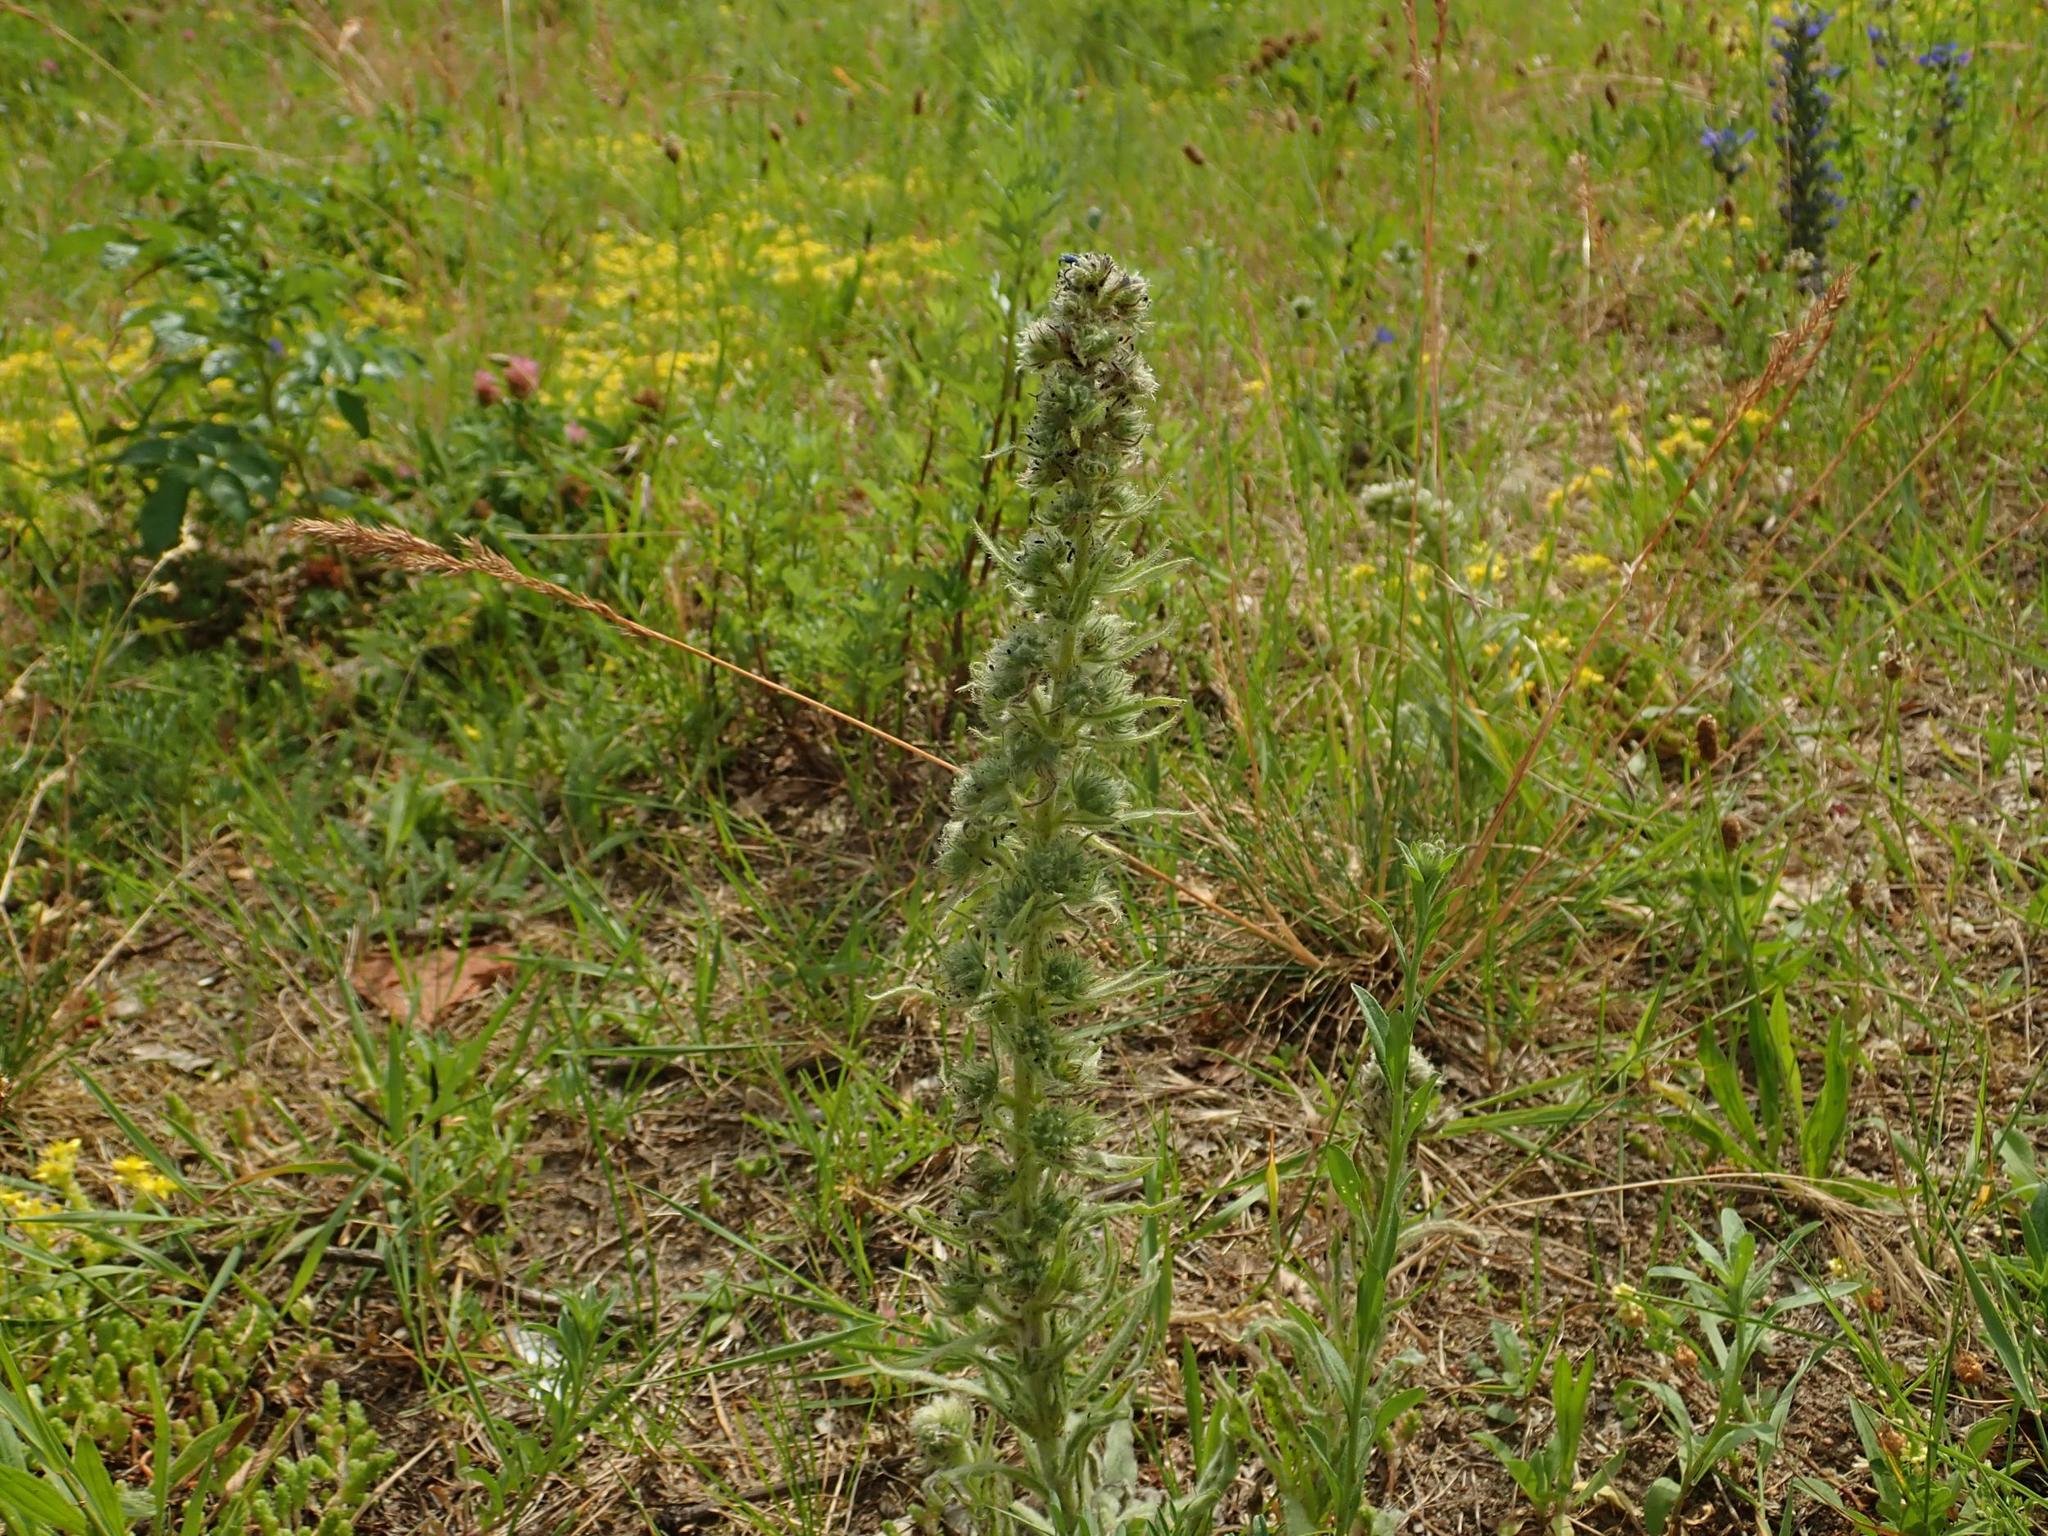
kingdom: Plantae
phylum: Tracheophyta
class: Magnoliopsida
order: Boraginales
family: Boraginaceae
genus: Echium
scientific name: Echium vulgare
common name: Common viper's bugloss
